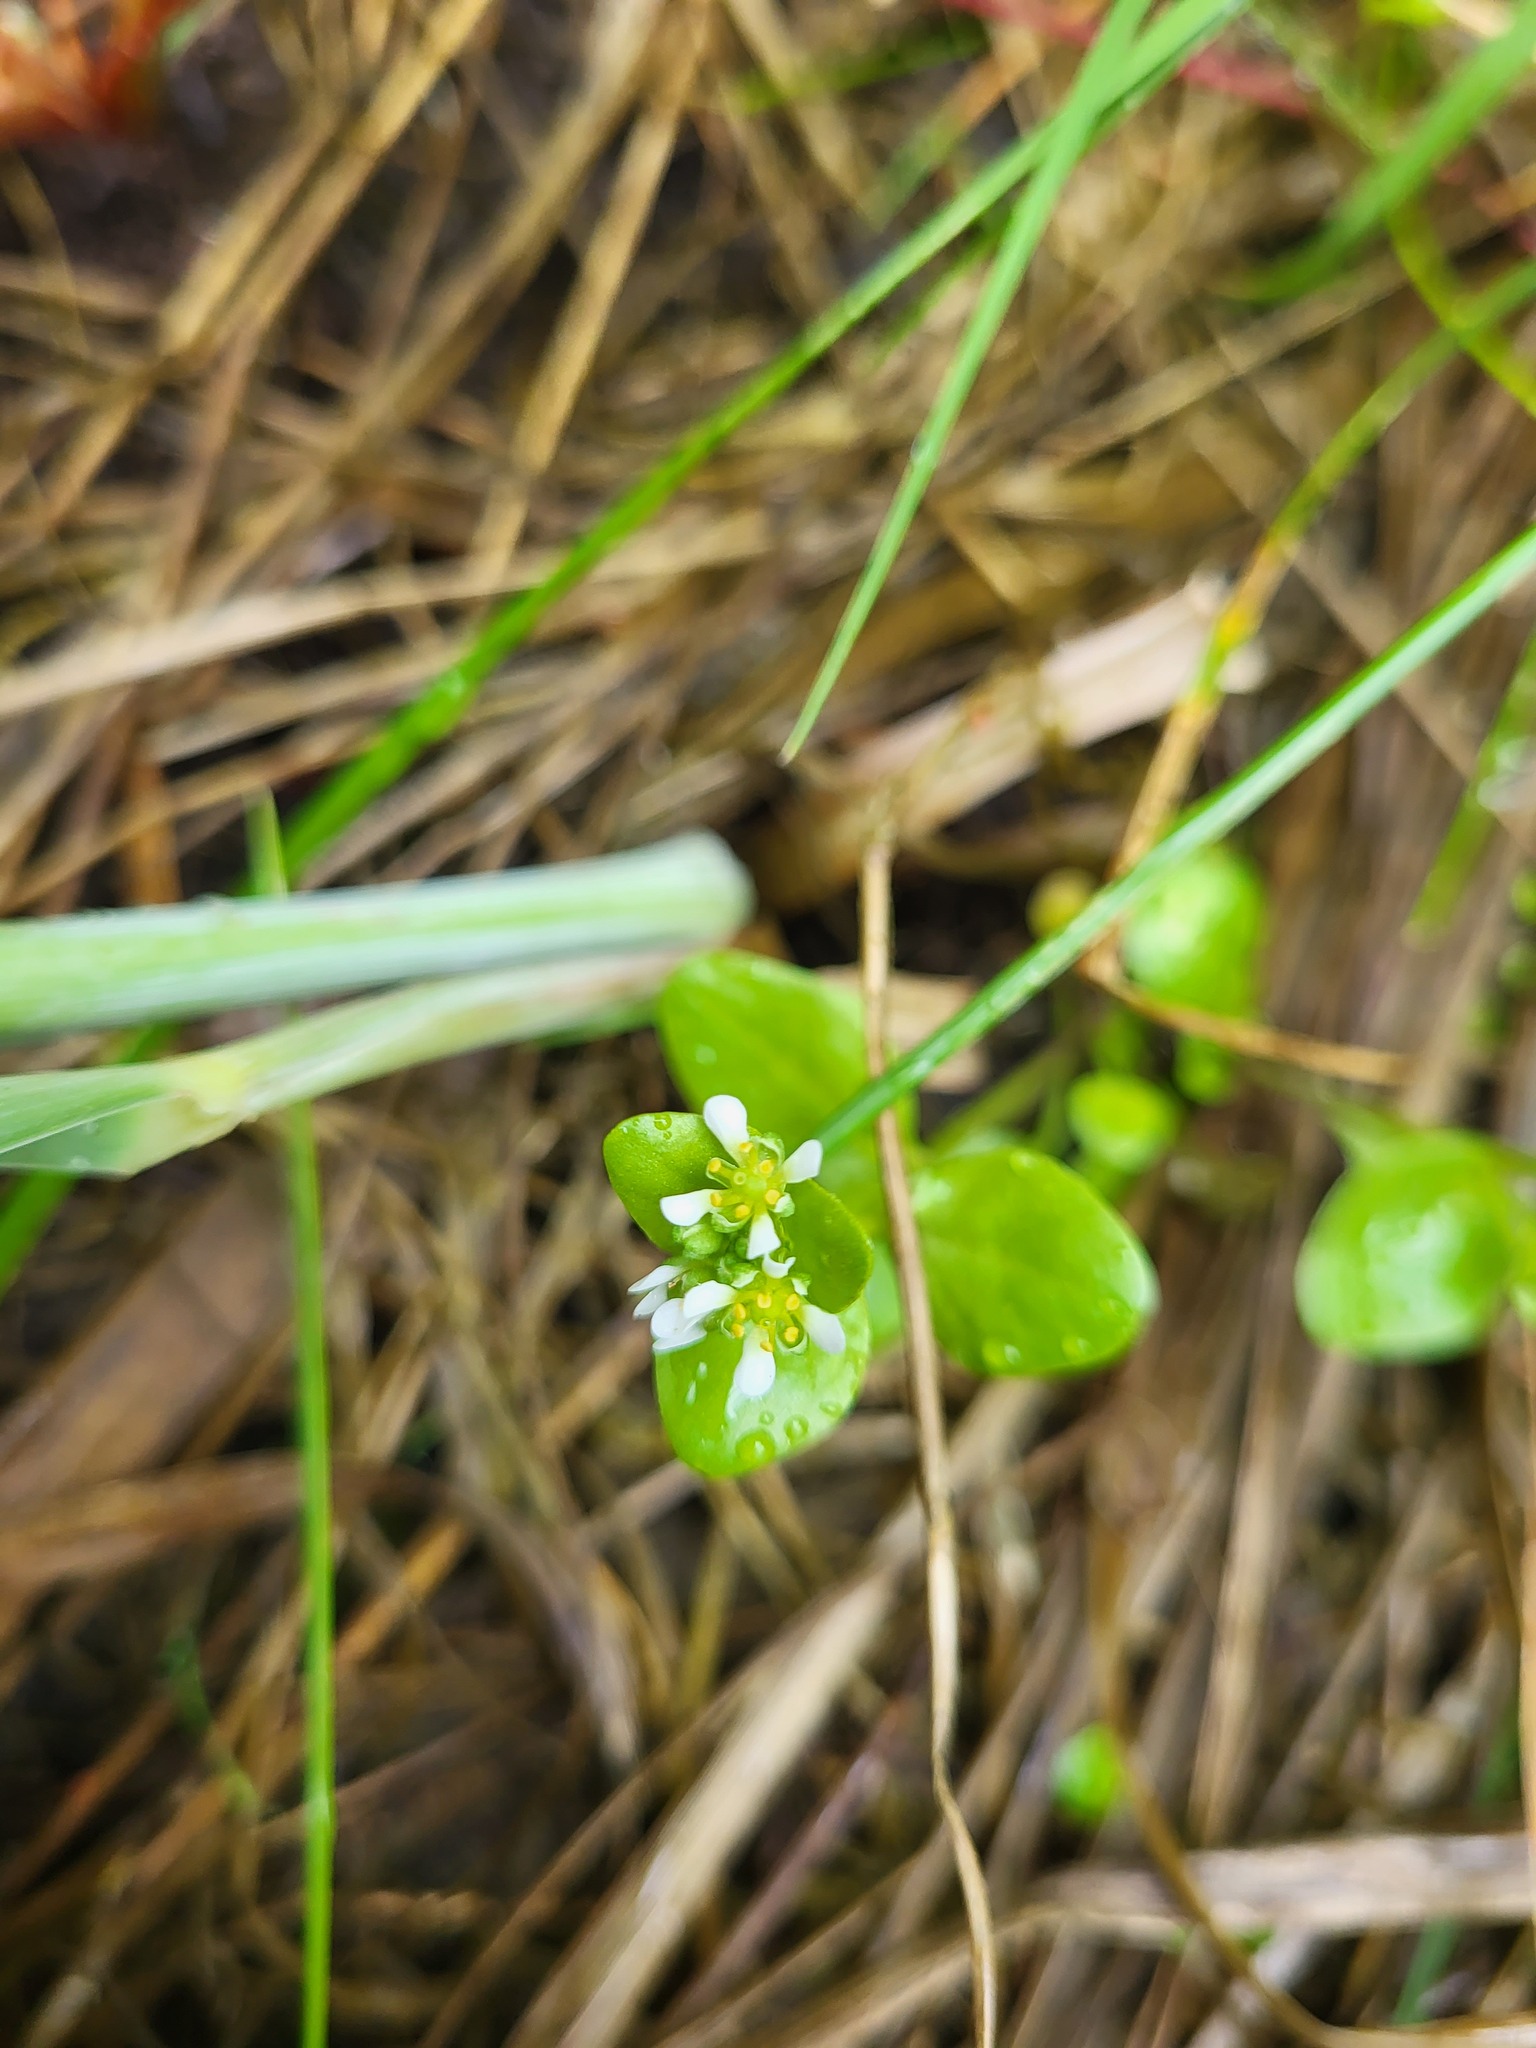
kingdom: Plantae
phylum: Tracheophyta
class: Magnoliopsida
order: Brassicales
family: Brassicaceae
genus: Cochlearia
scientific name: Cochlearia groenlandica
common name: Danish scurvygrass
